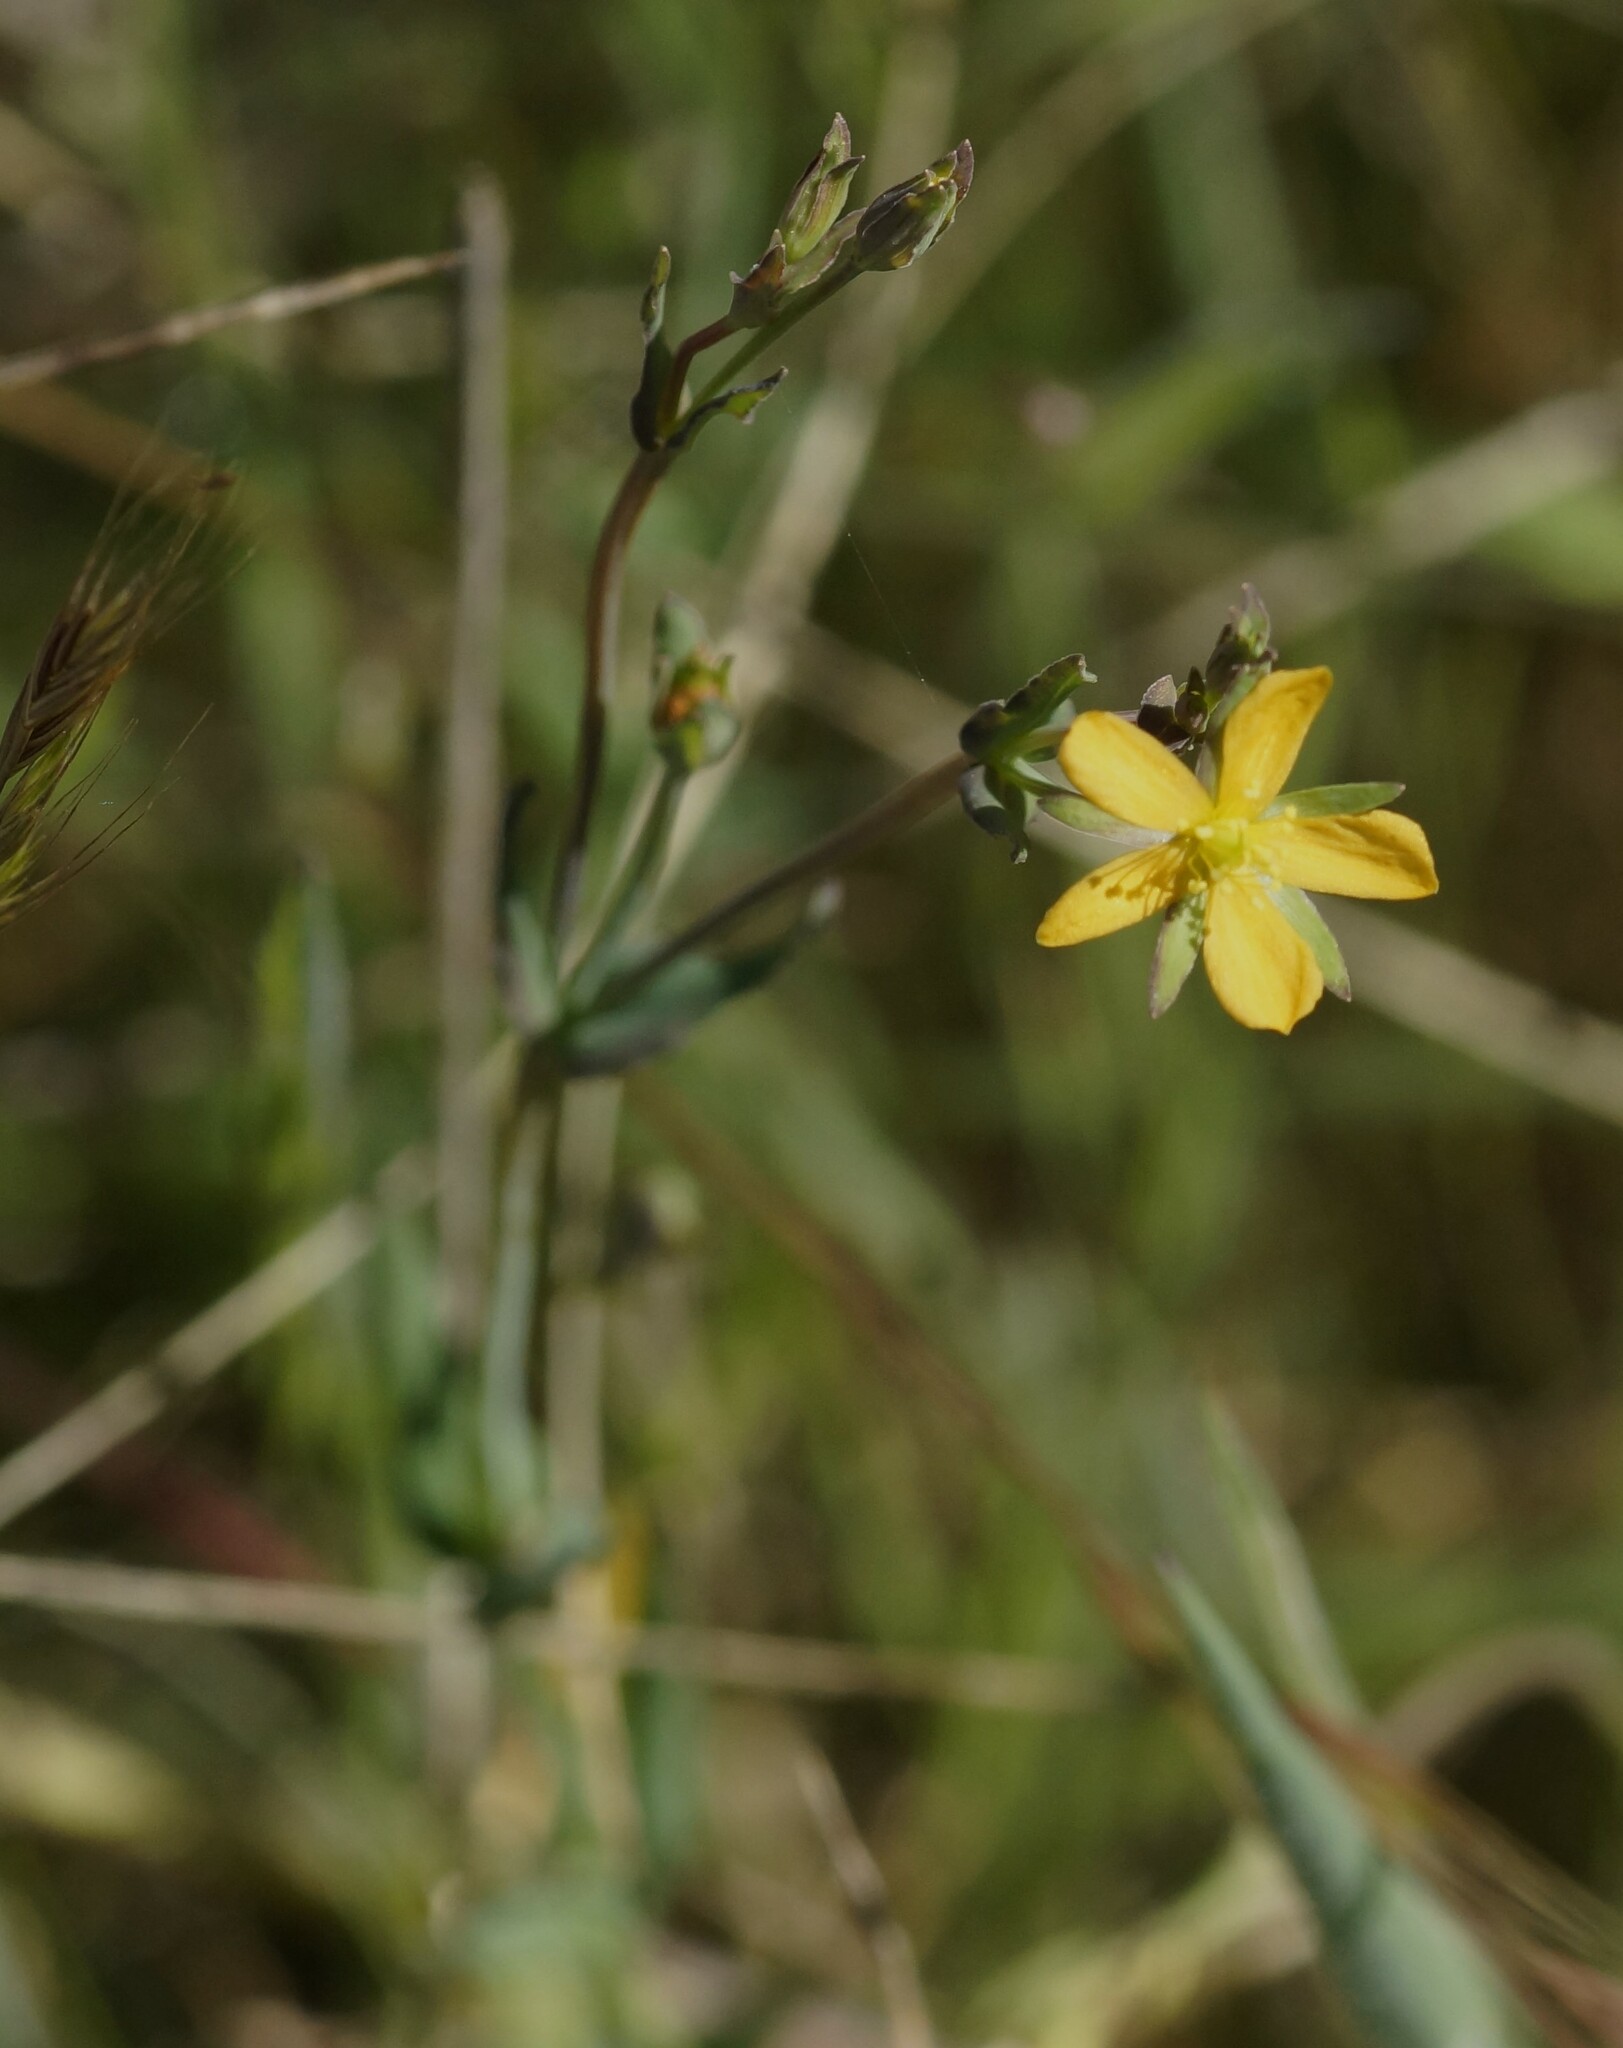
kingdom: Plantae
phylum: Tracheophyta
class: Magnoliopsida
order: Malpighiales
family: Hypericaceae
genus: Hypericum
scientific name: Hypericum gramineum
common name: Grassy st. johnswort
